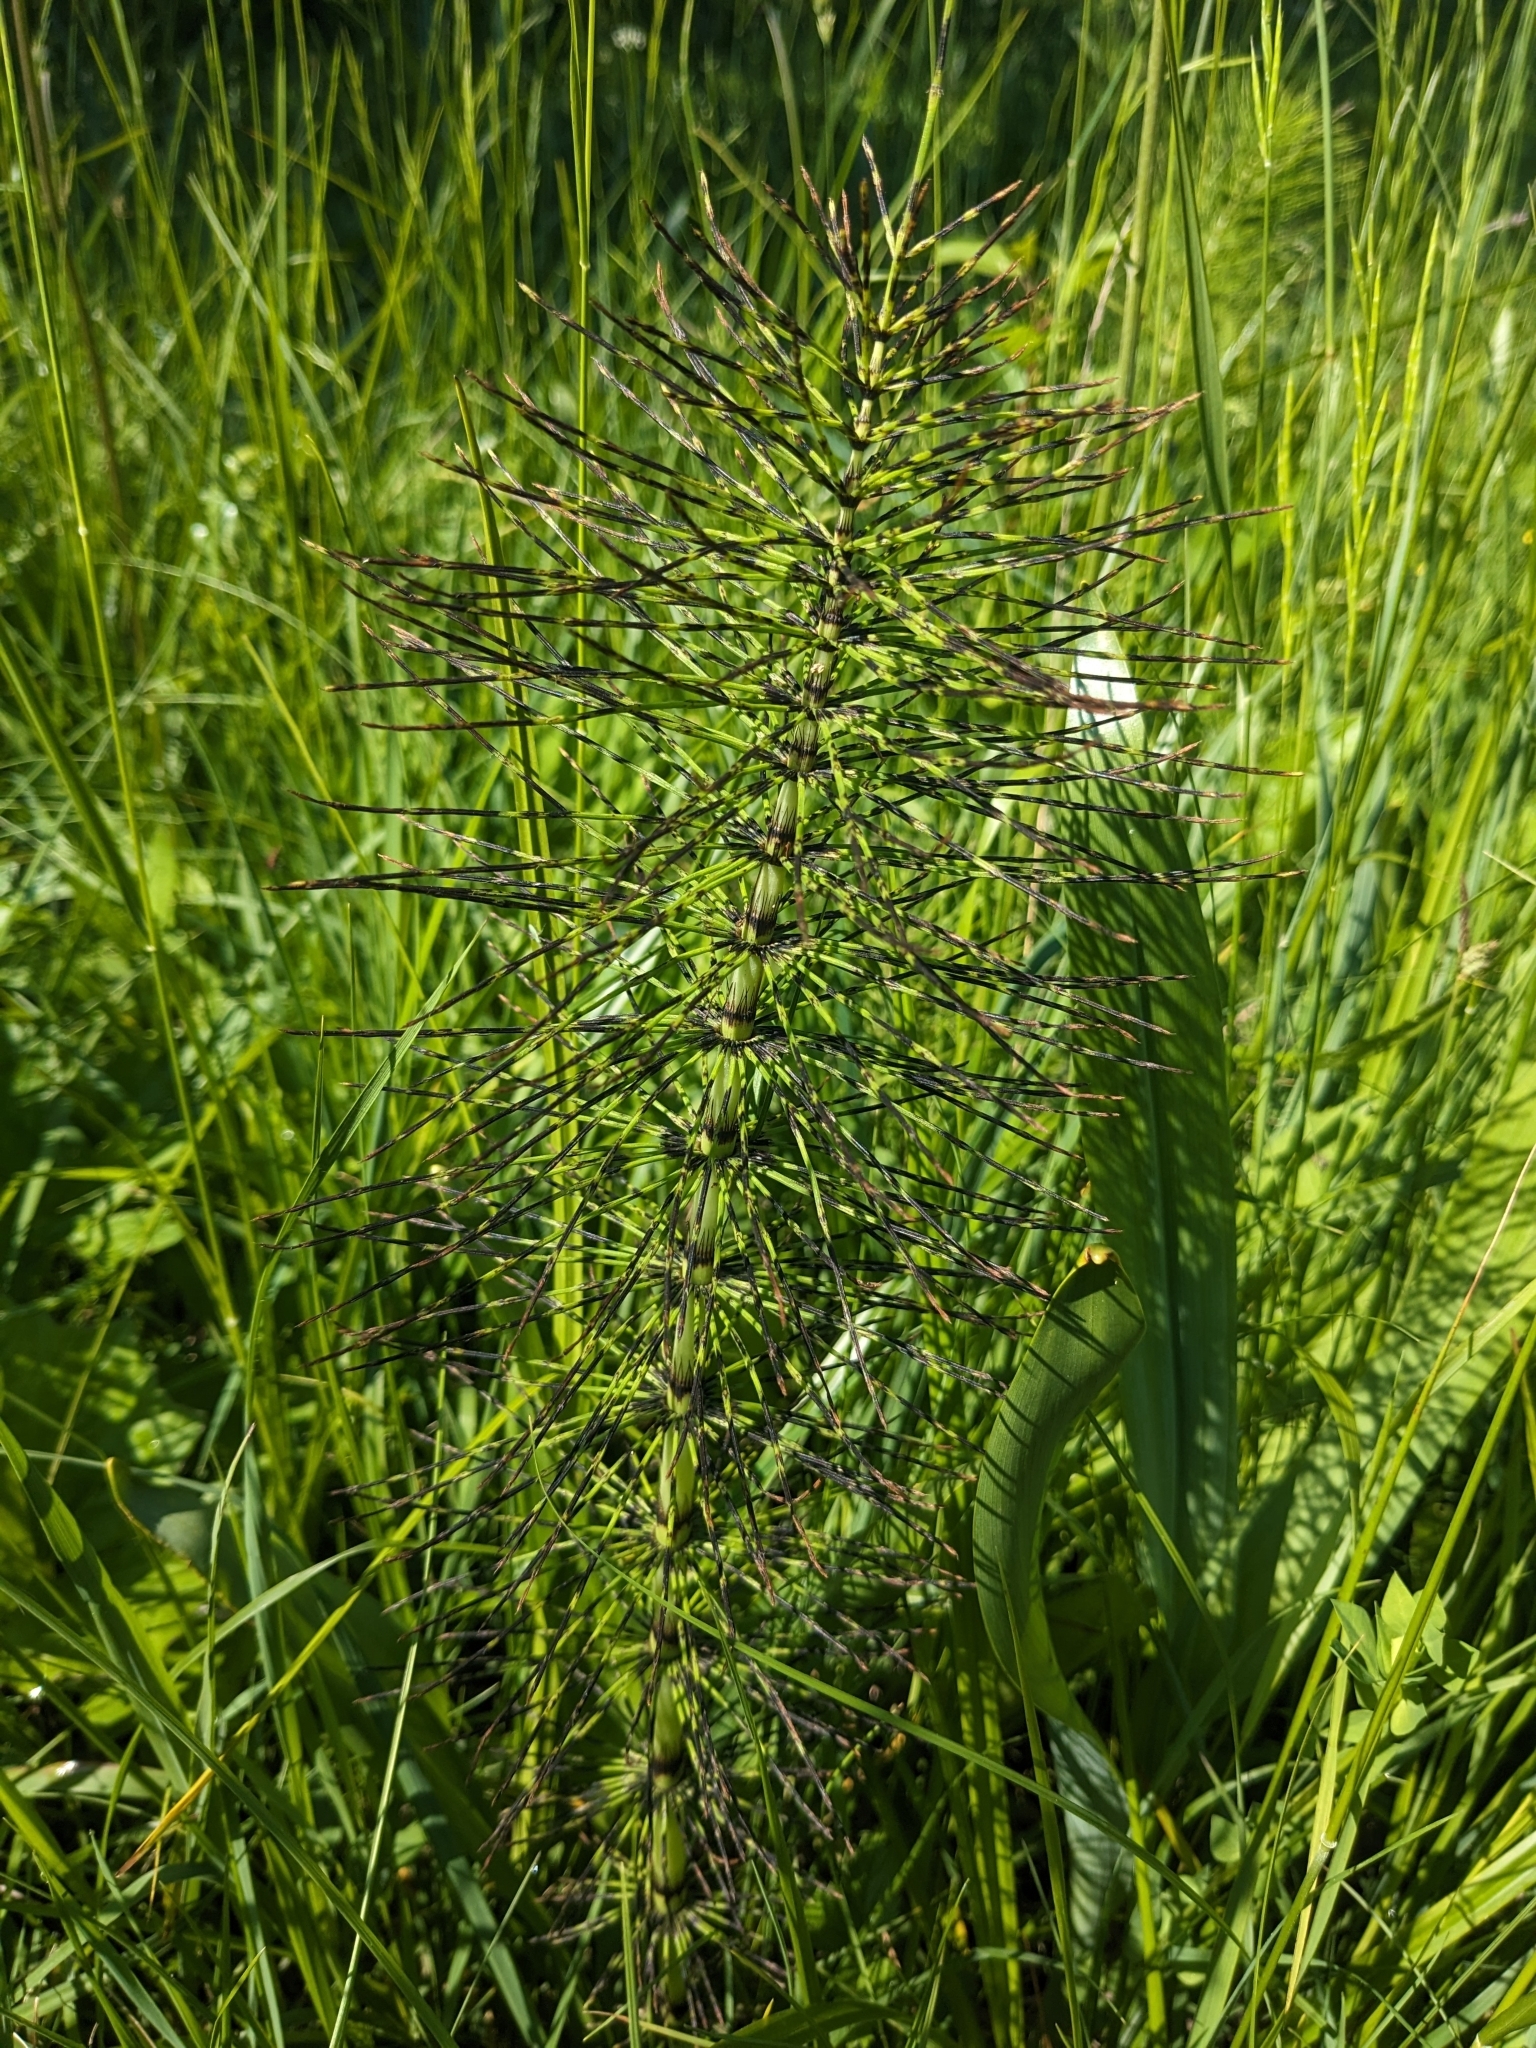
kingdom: Plantae
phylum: Tracheophyta
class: Polypodiopsida
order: Equisetales
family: Equisetaceae
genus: Equisetum
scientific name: Equisetum telmateia
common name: Great horsetail
